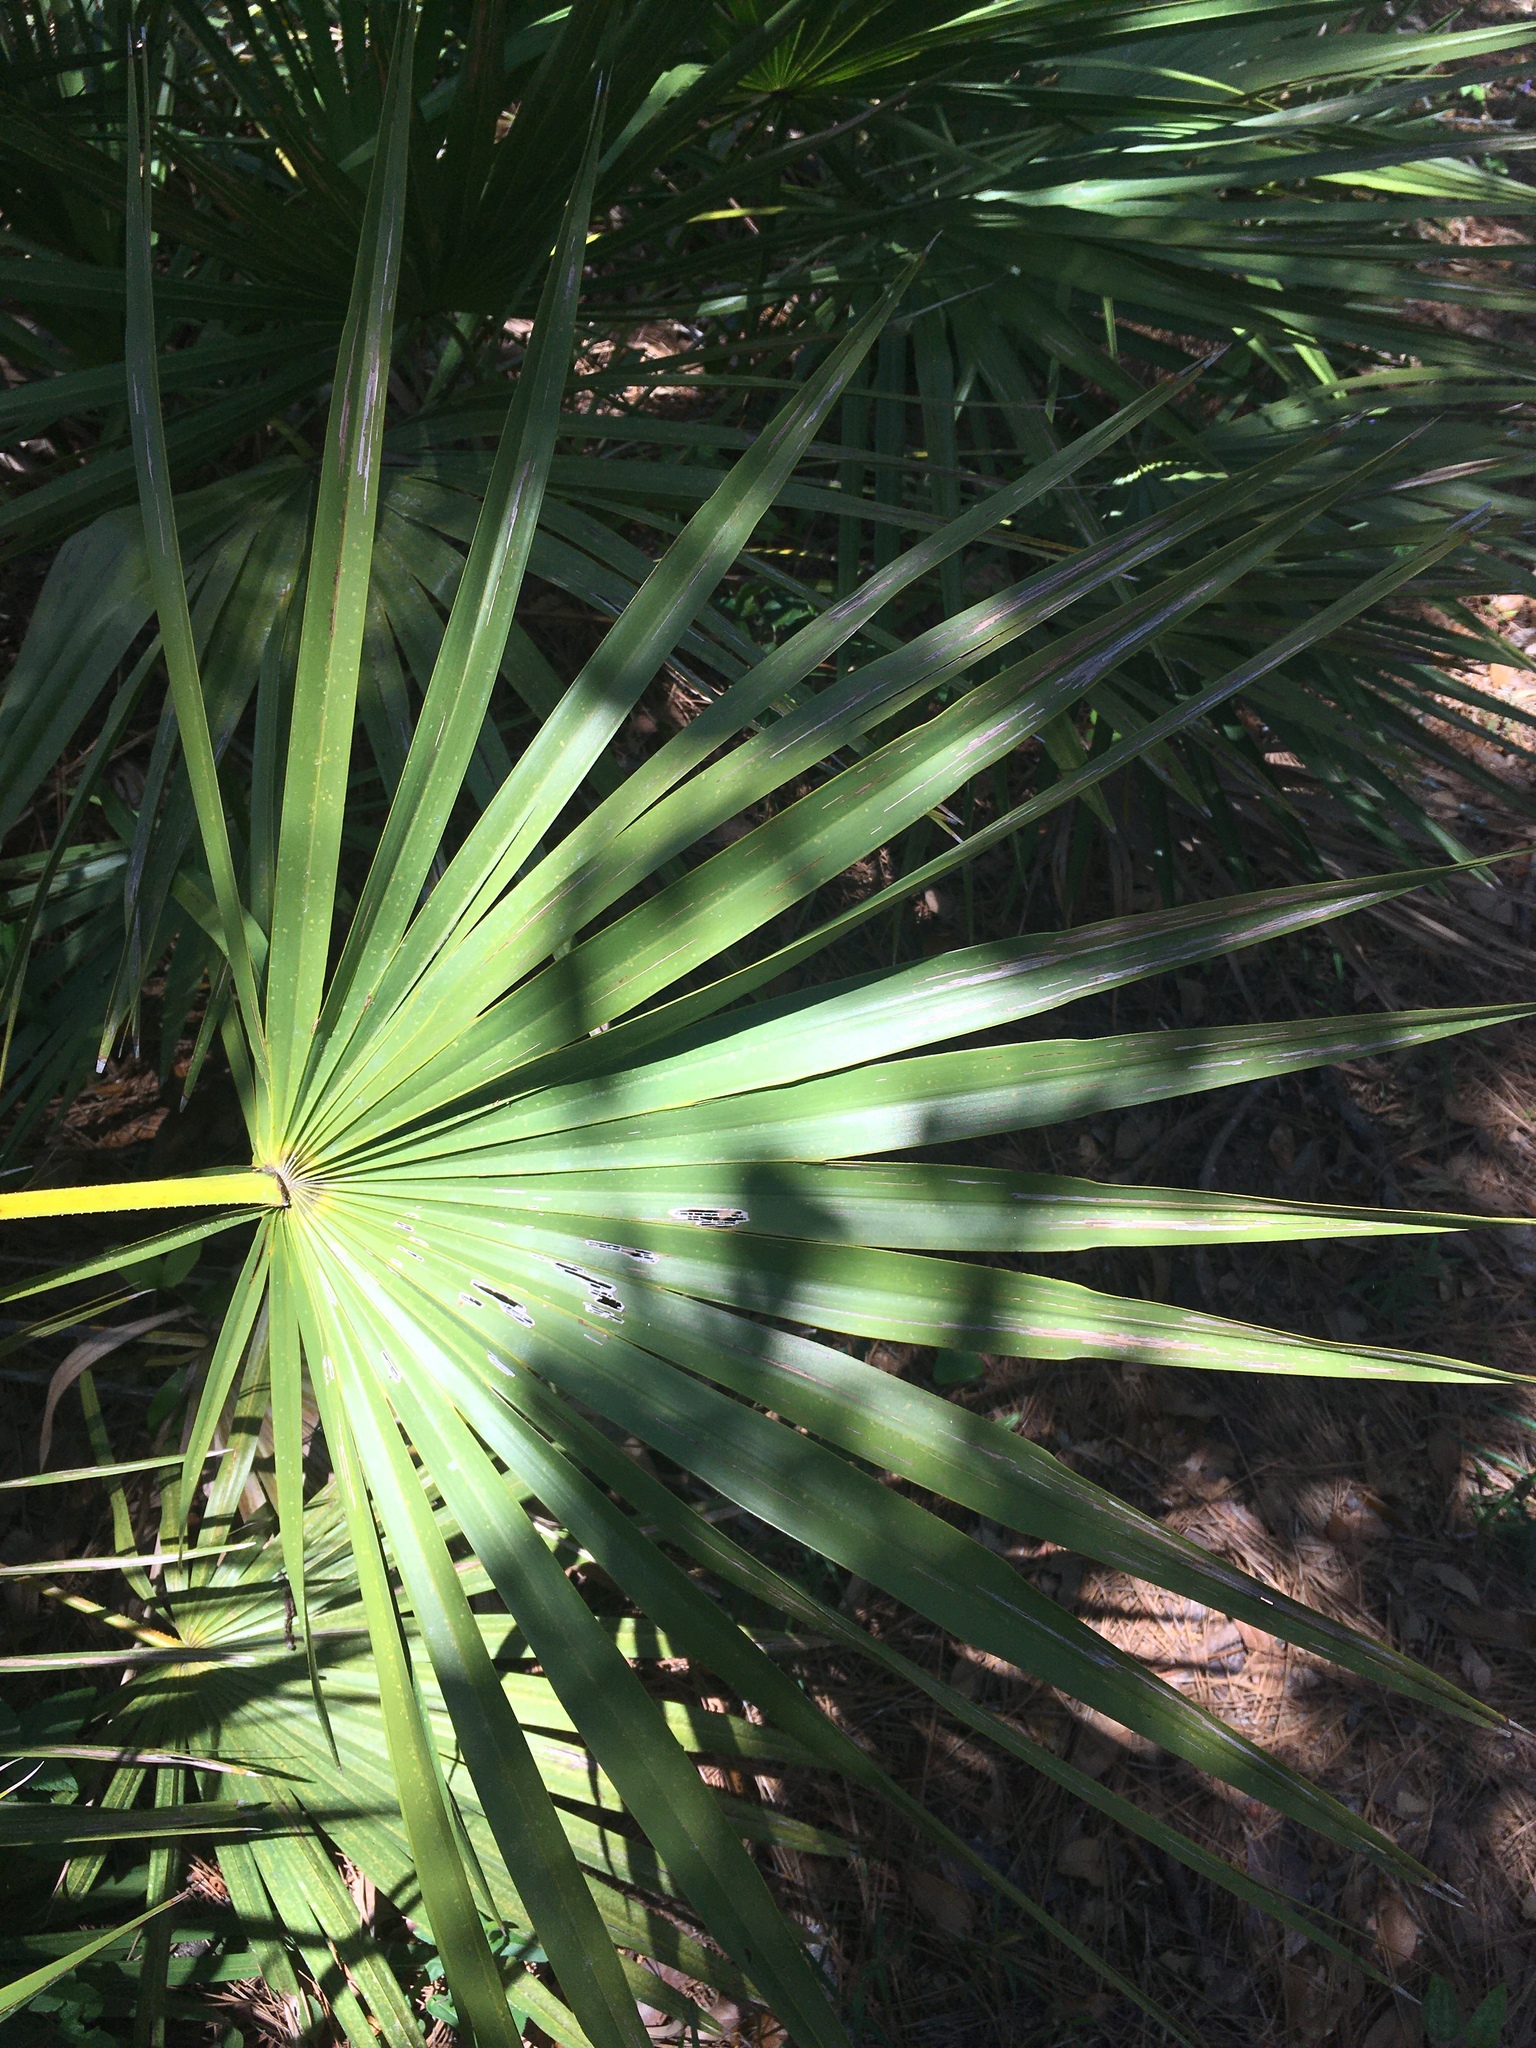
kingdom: Plantae
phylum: Tracheophyta
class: Liliopsida
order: Arecales
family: Arecaceae
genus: Serenoa
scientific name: Serenoa repens
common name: Saw-palmetto
